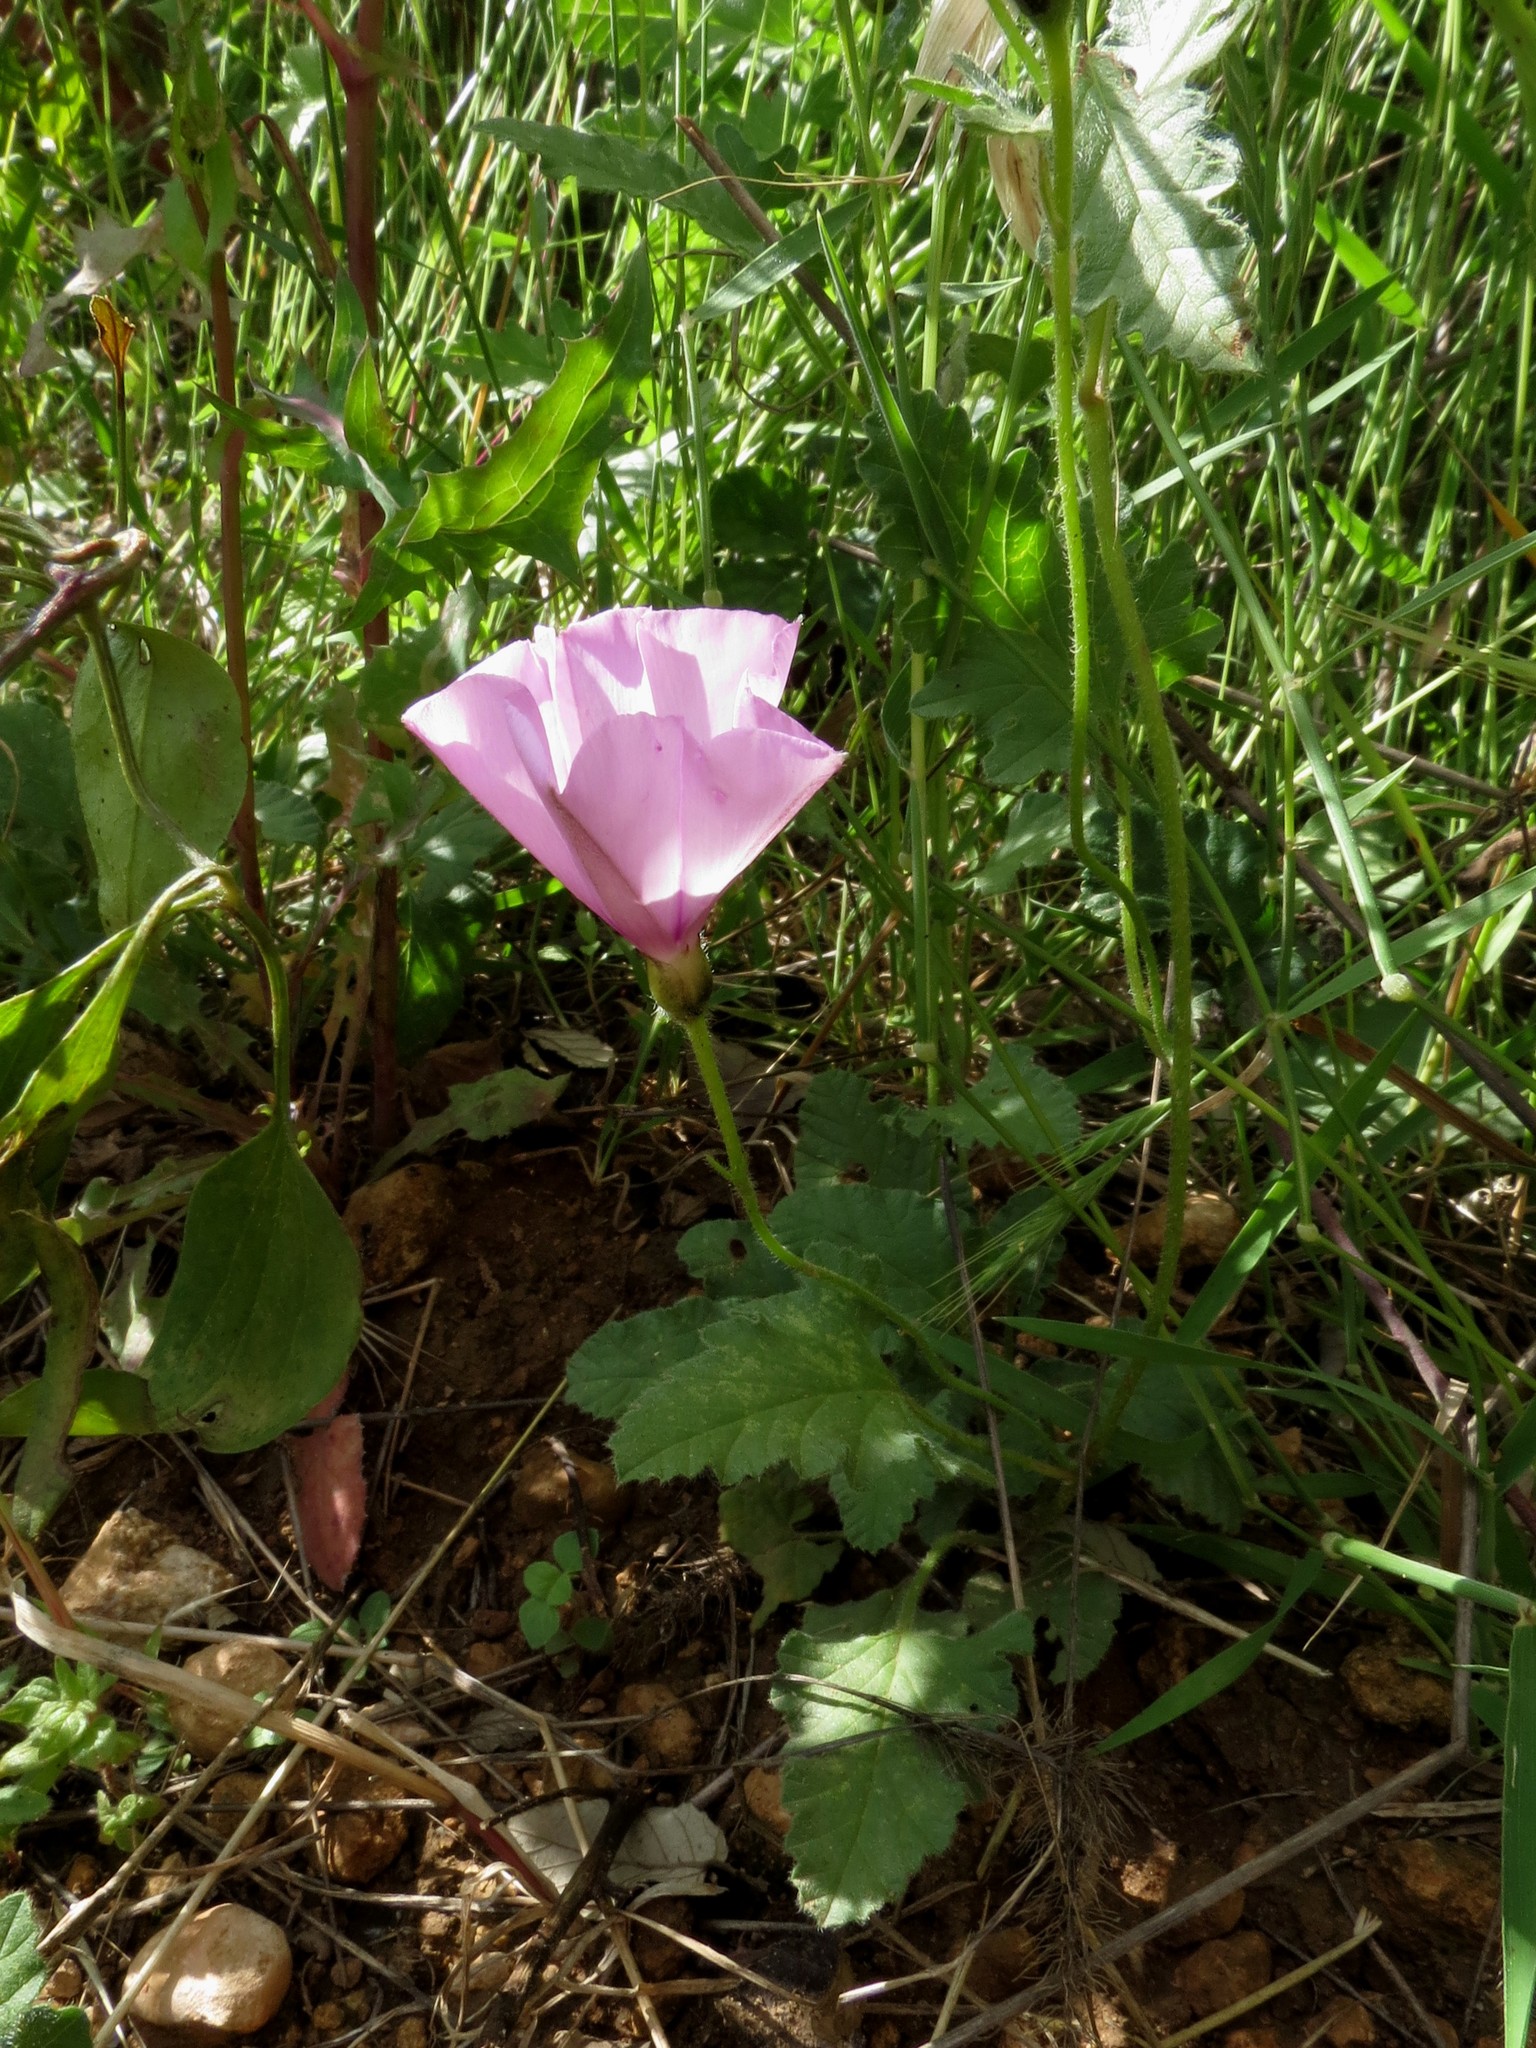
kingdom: Plantae
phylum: Tracheophyta
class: Magnoliopsida
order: Solanales
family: Convolvulaceae
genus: Convolvulus
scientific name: Convolvulus althaeoides
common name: Mallow bindweed
